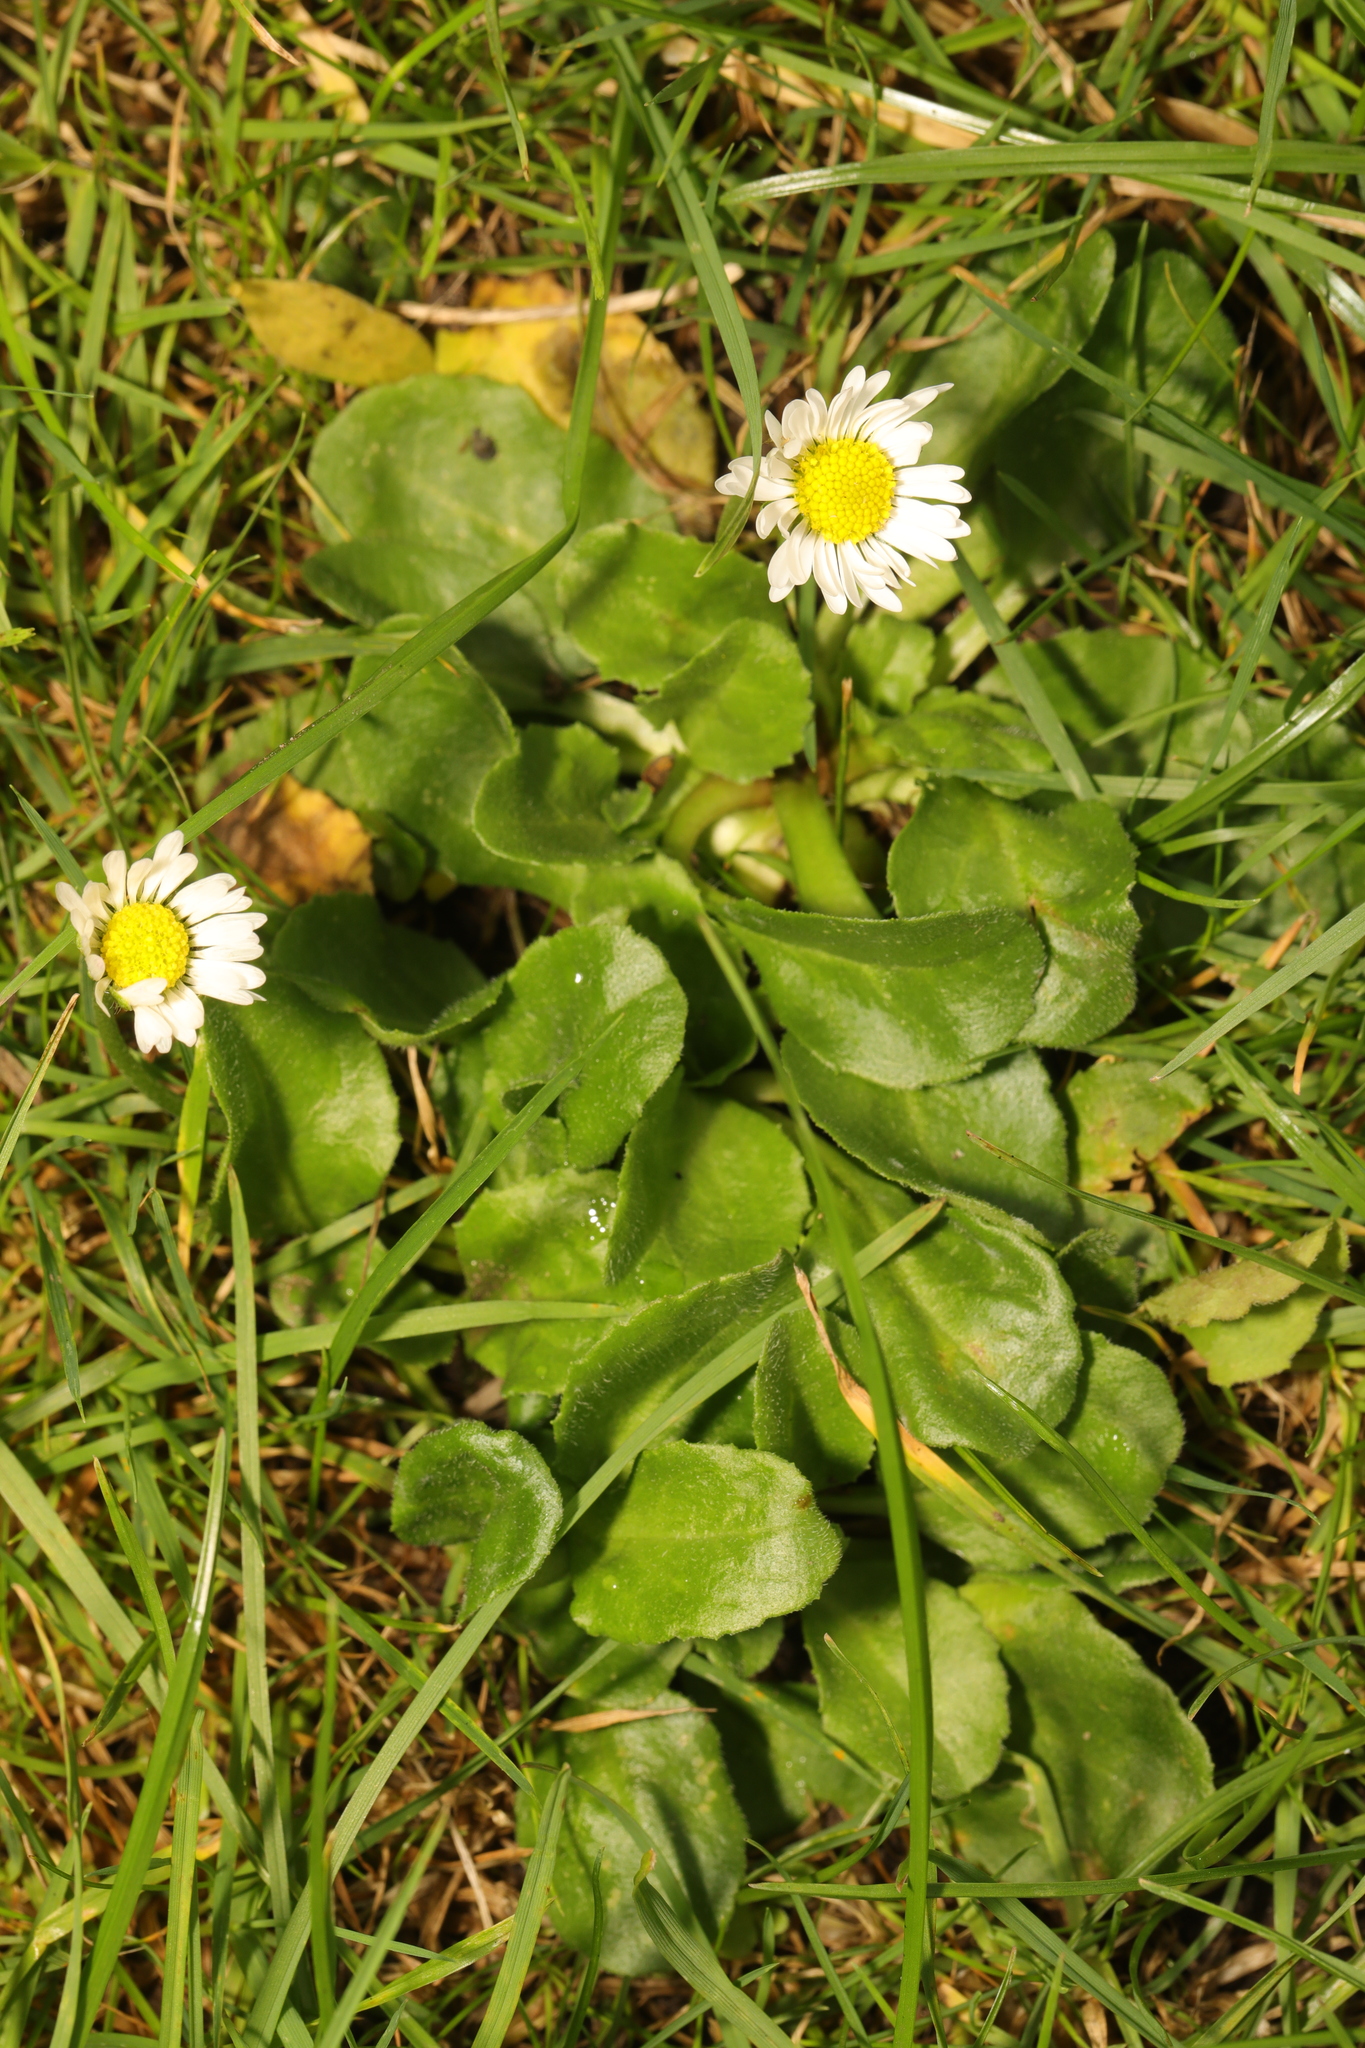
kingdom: Plantae
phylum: Tracheophyta
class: Magnoliopsida
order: Asterales
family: Asteraceae
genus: Bellis
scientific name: Bellis perennis
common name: Lawndaisy
